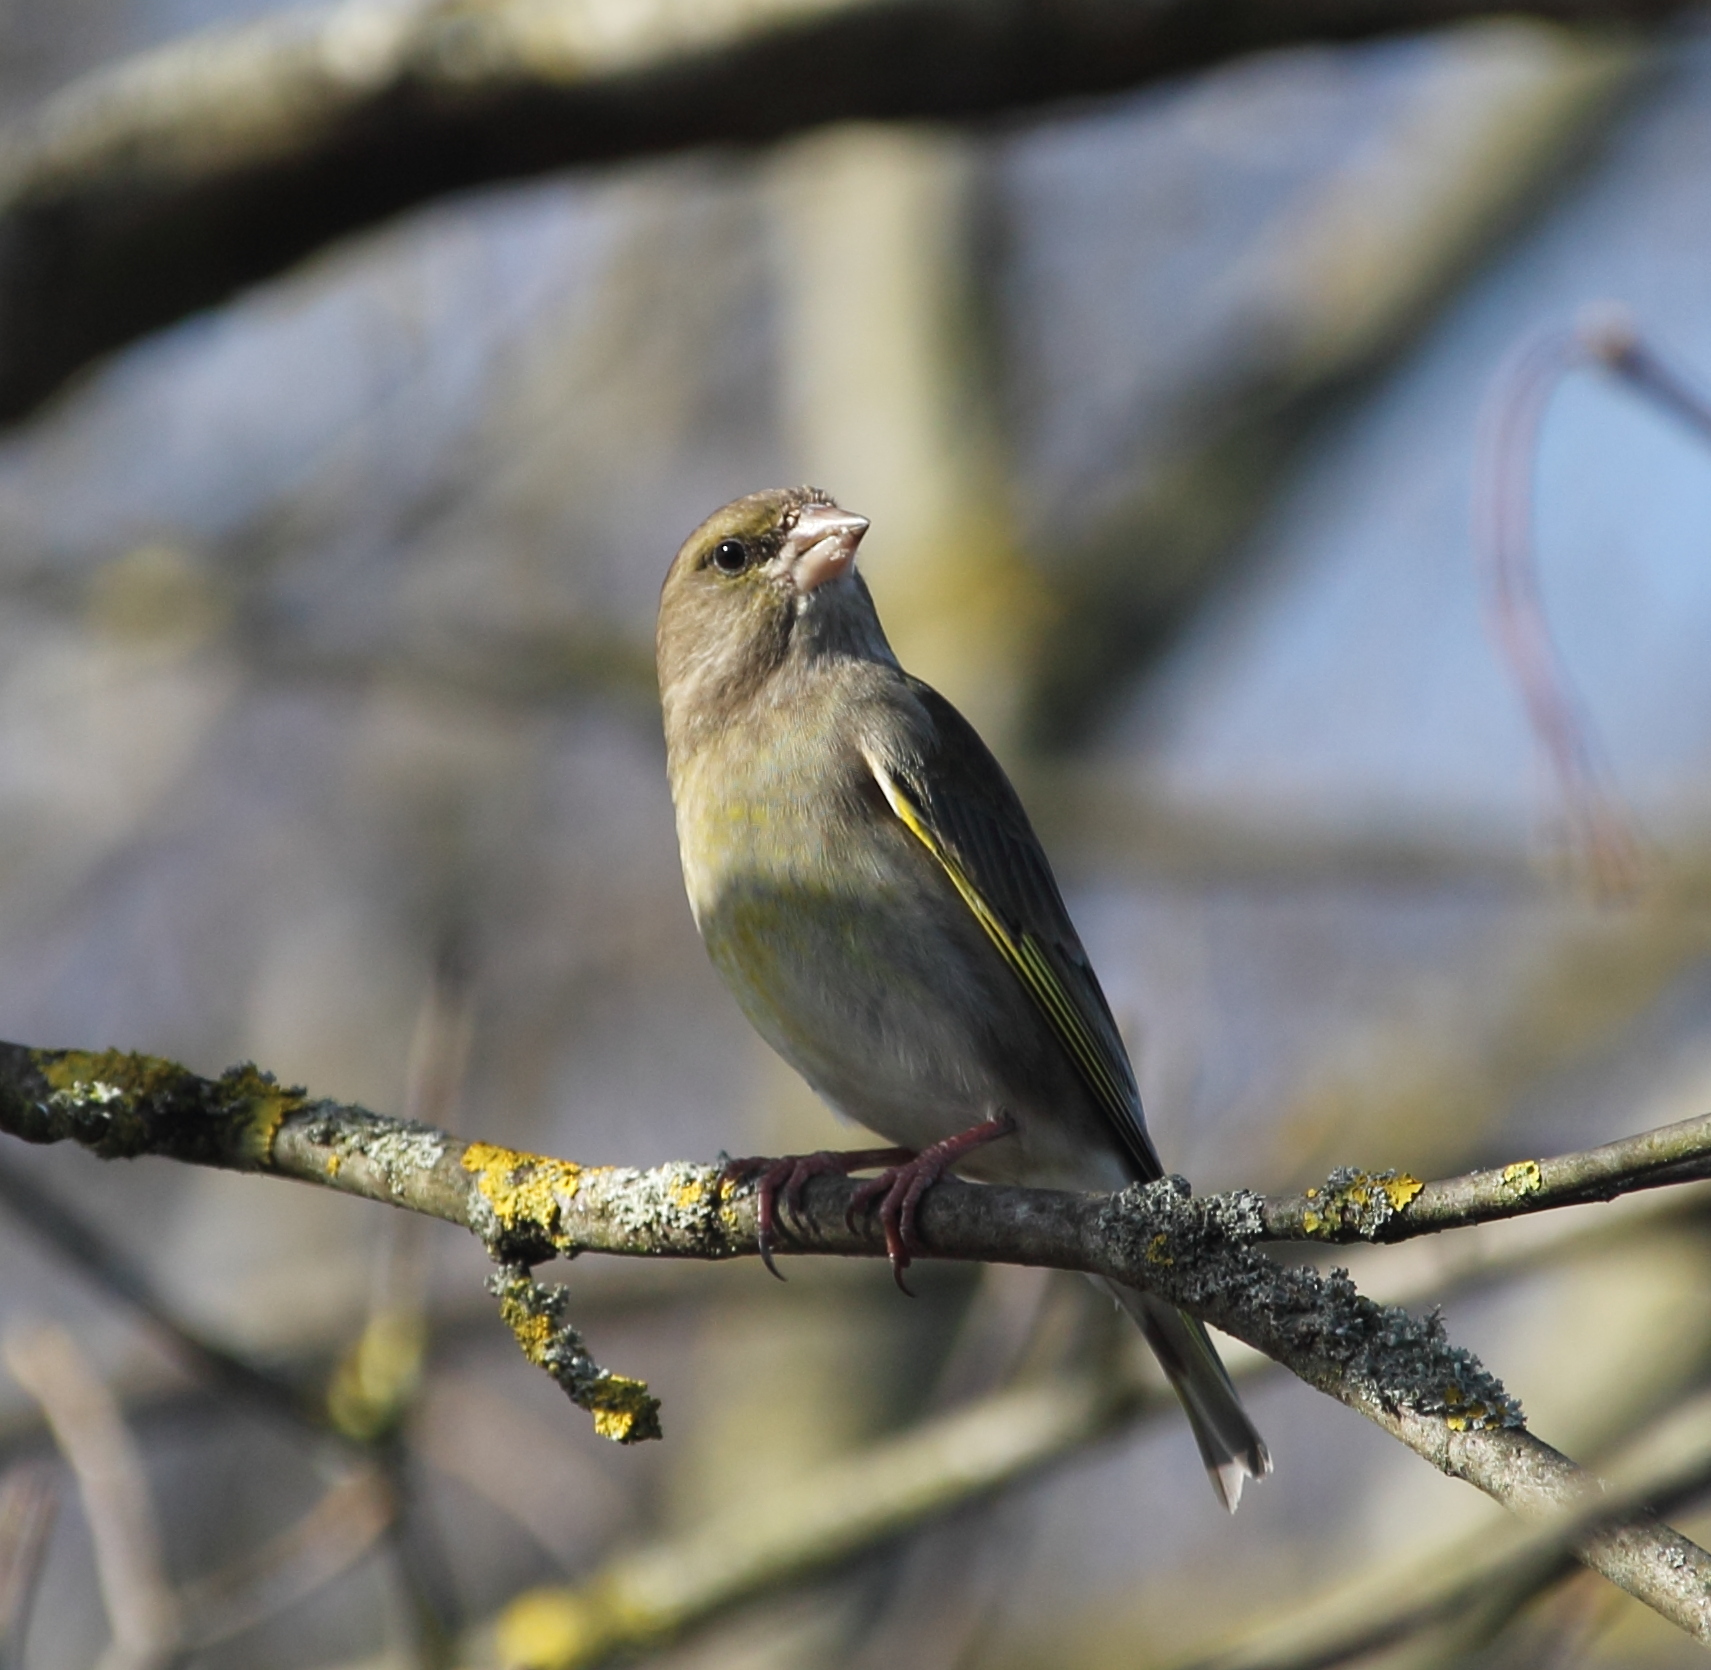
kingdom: Plantae
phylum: Tracheophyta
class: Liliopsida
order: Poales
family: Poaceae
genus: Chloris
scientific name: Chloris chloris
